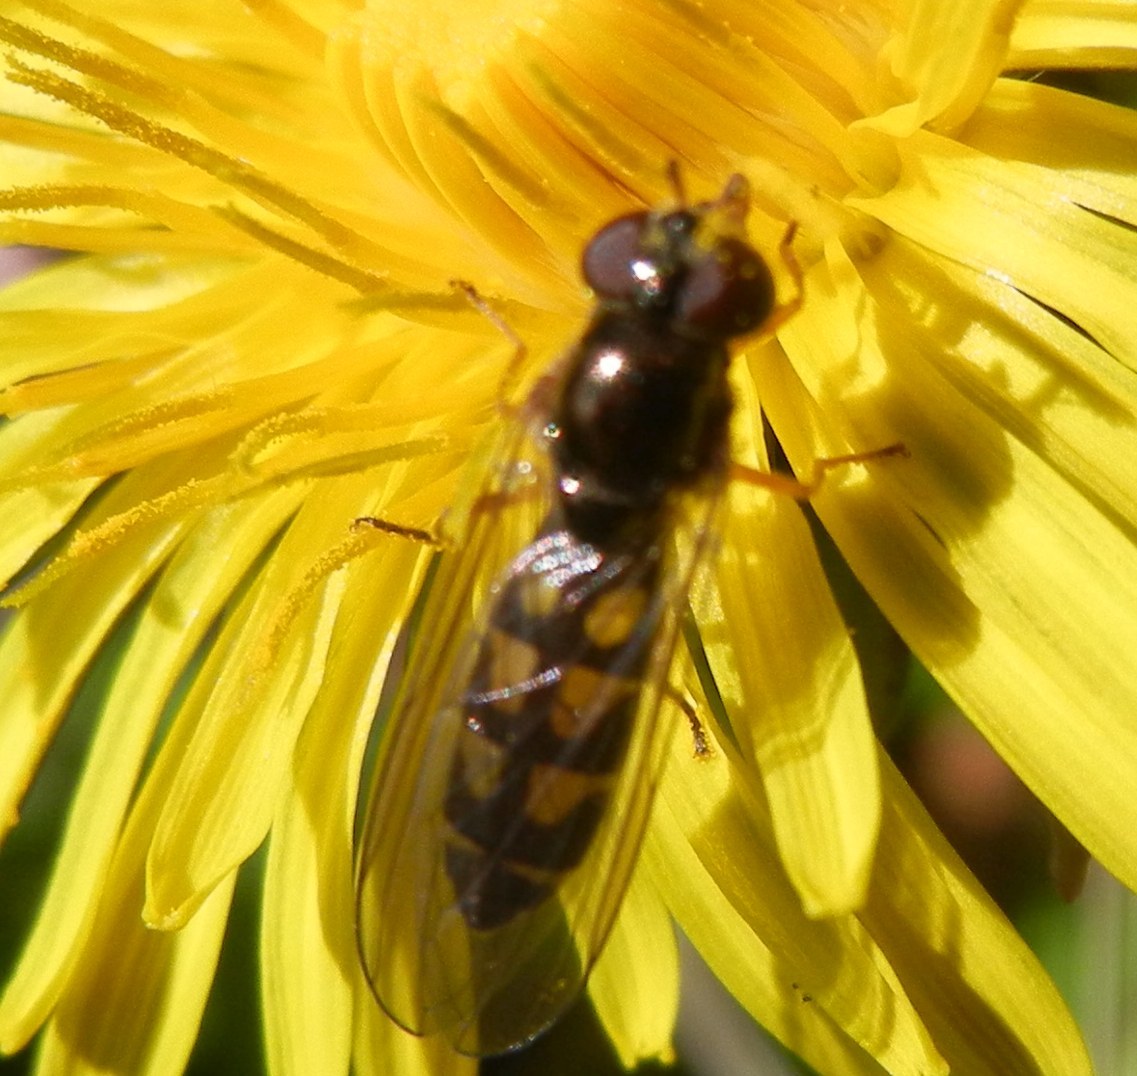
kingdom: Animalia
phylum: Arthropoda
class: Insecta
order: Diptera
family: Syrphidae
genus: Melanostoma
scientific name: Melanostoma scalare
